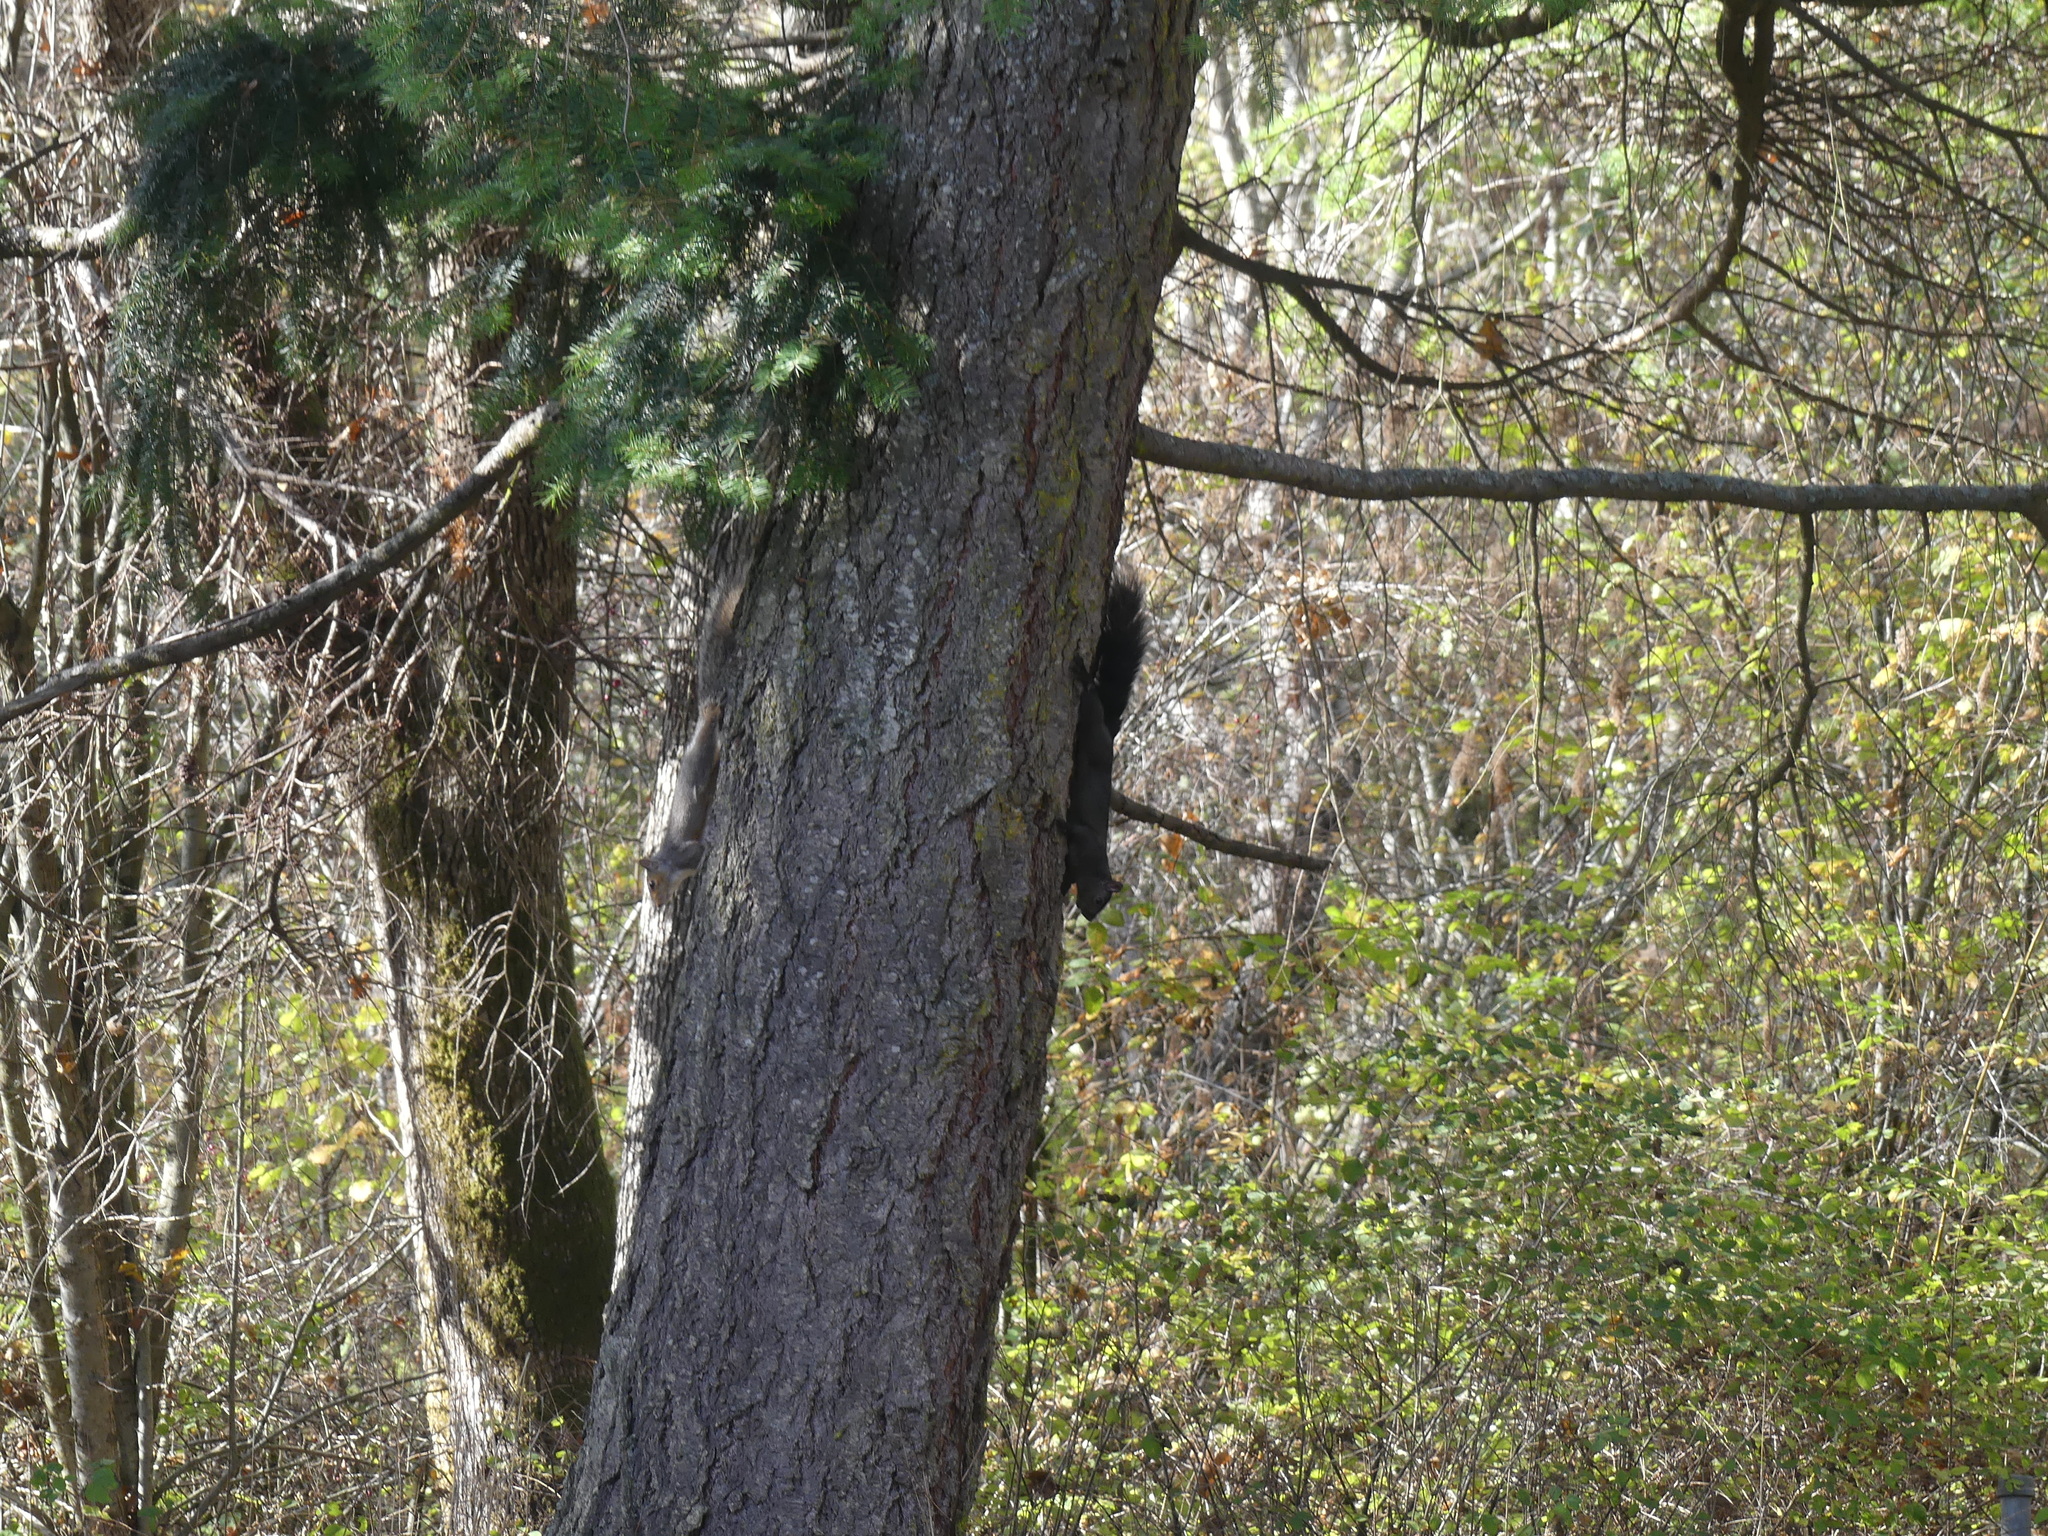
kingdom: Animalia
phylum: Chordata
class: Mammalia
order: Rodentia
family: Sciuridae
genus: Sciurus
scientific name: Sciurus carolinensis
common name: Eastern gray squirrel
